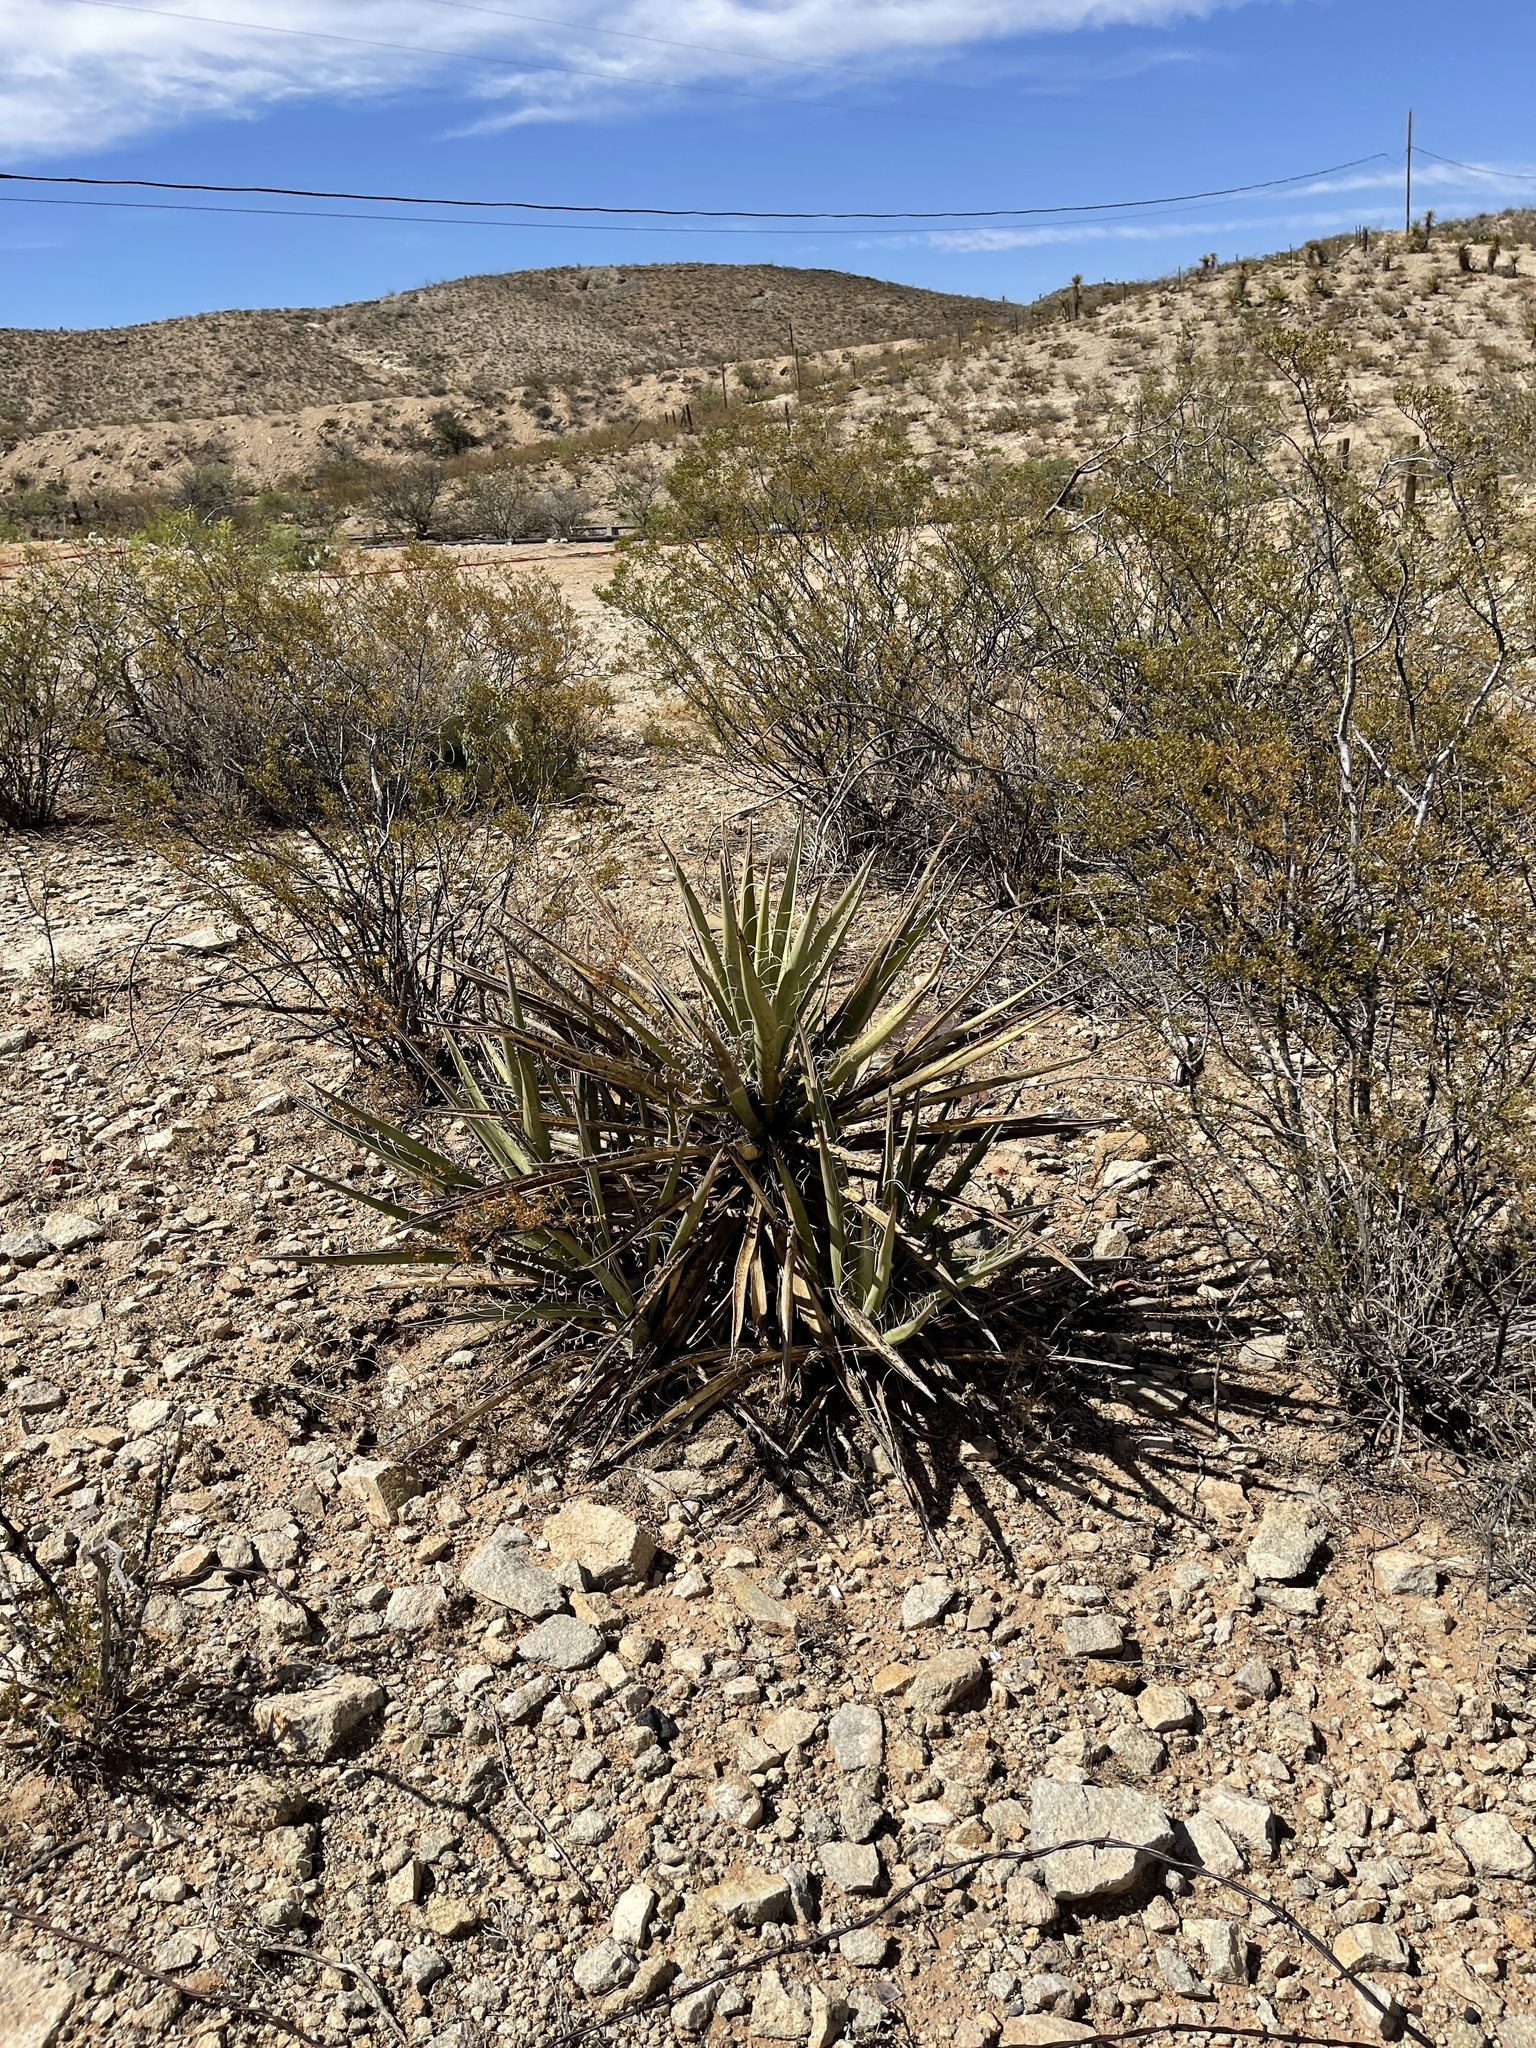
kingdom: Plantae
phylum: Tracheophyta
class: Liliopsida
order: Asparagales
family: Asparagaceae
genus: Yucca
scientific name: Yucca baccata
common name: Banana yucca
